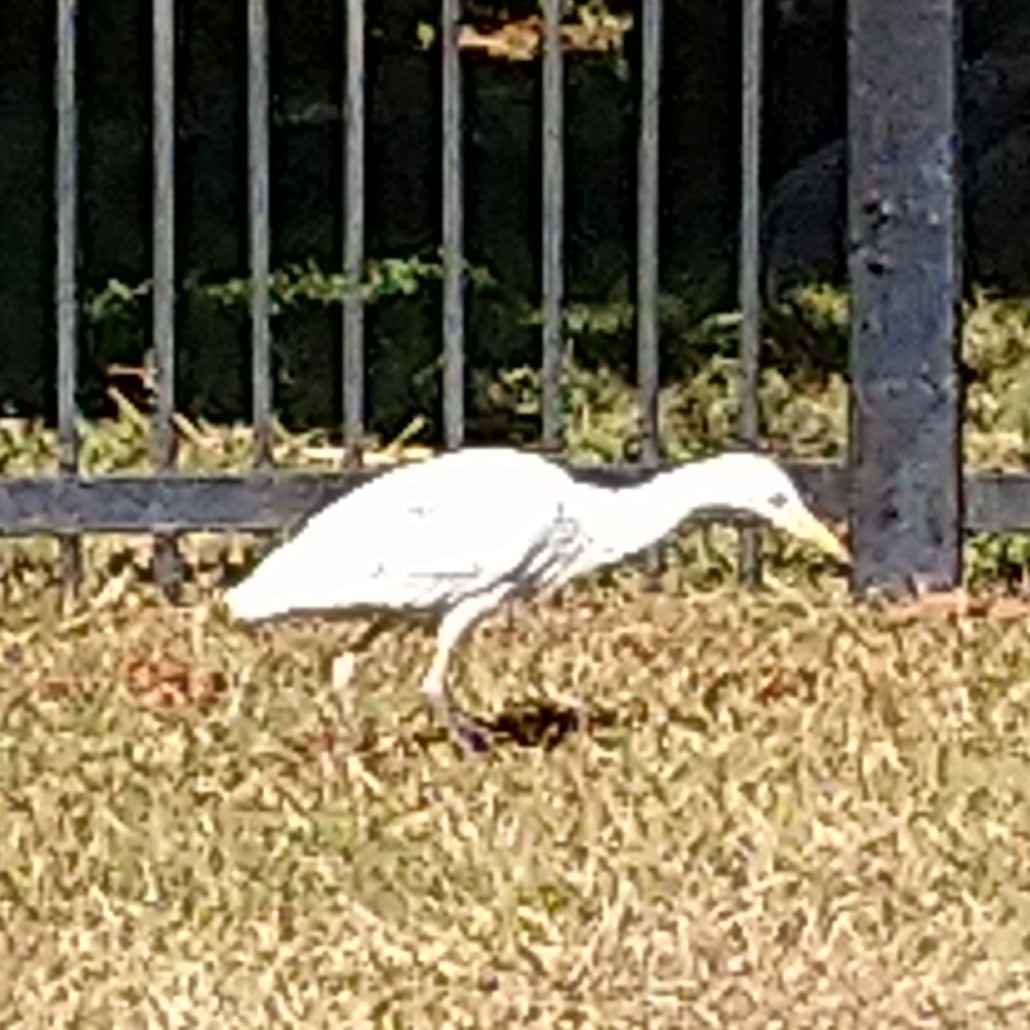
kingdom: Animalia
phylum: Chordata
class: Aves
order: Pelecaniformes
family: Ardeidae
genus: Bubulcus
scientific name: Bubulcus ibis
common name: Cattle egret
